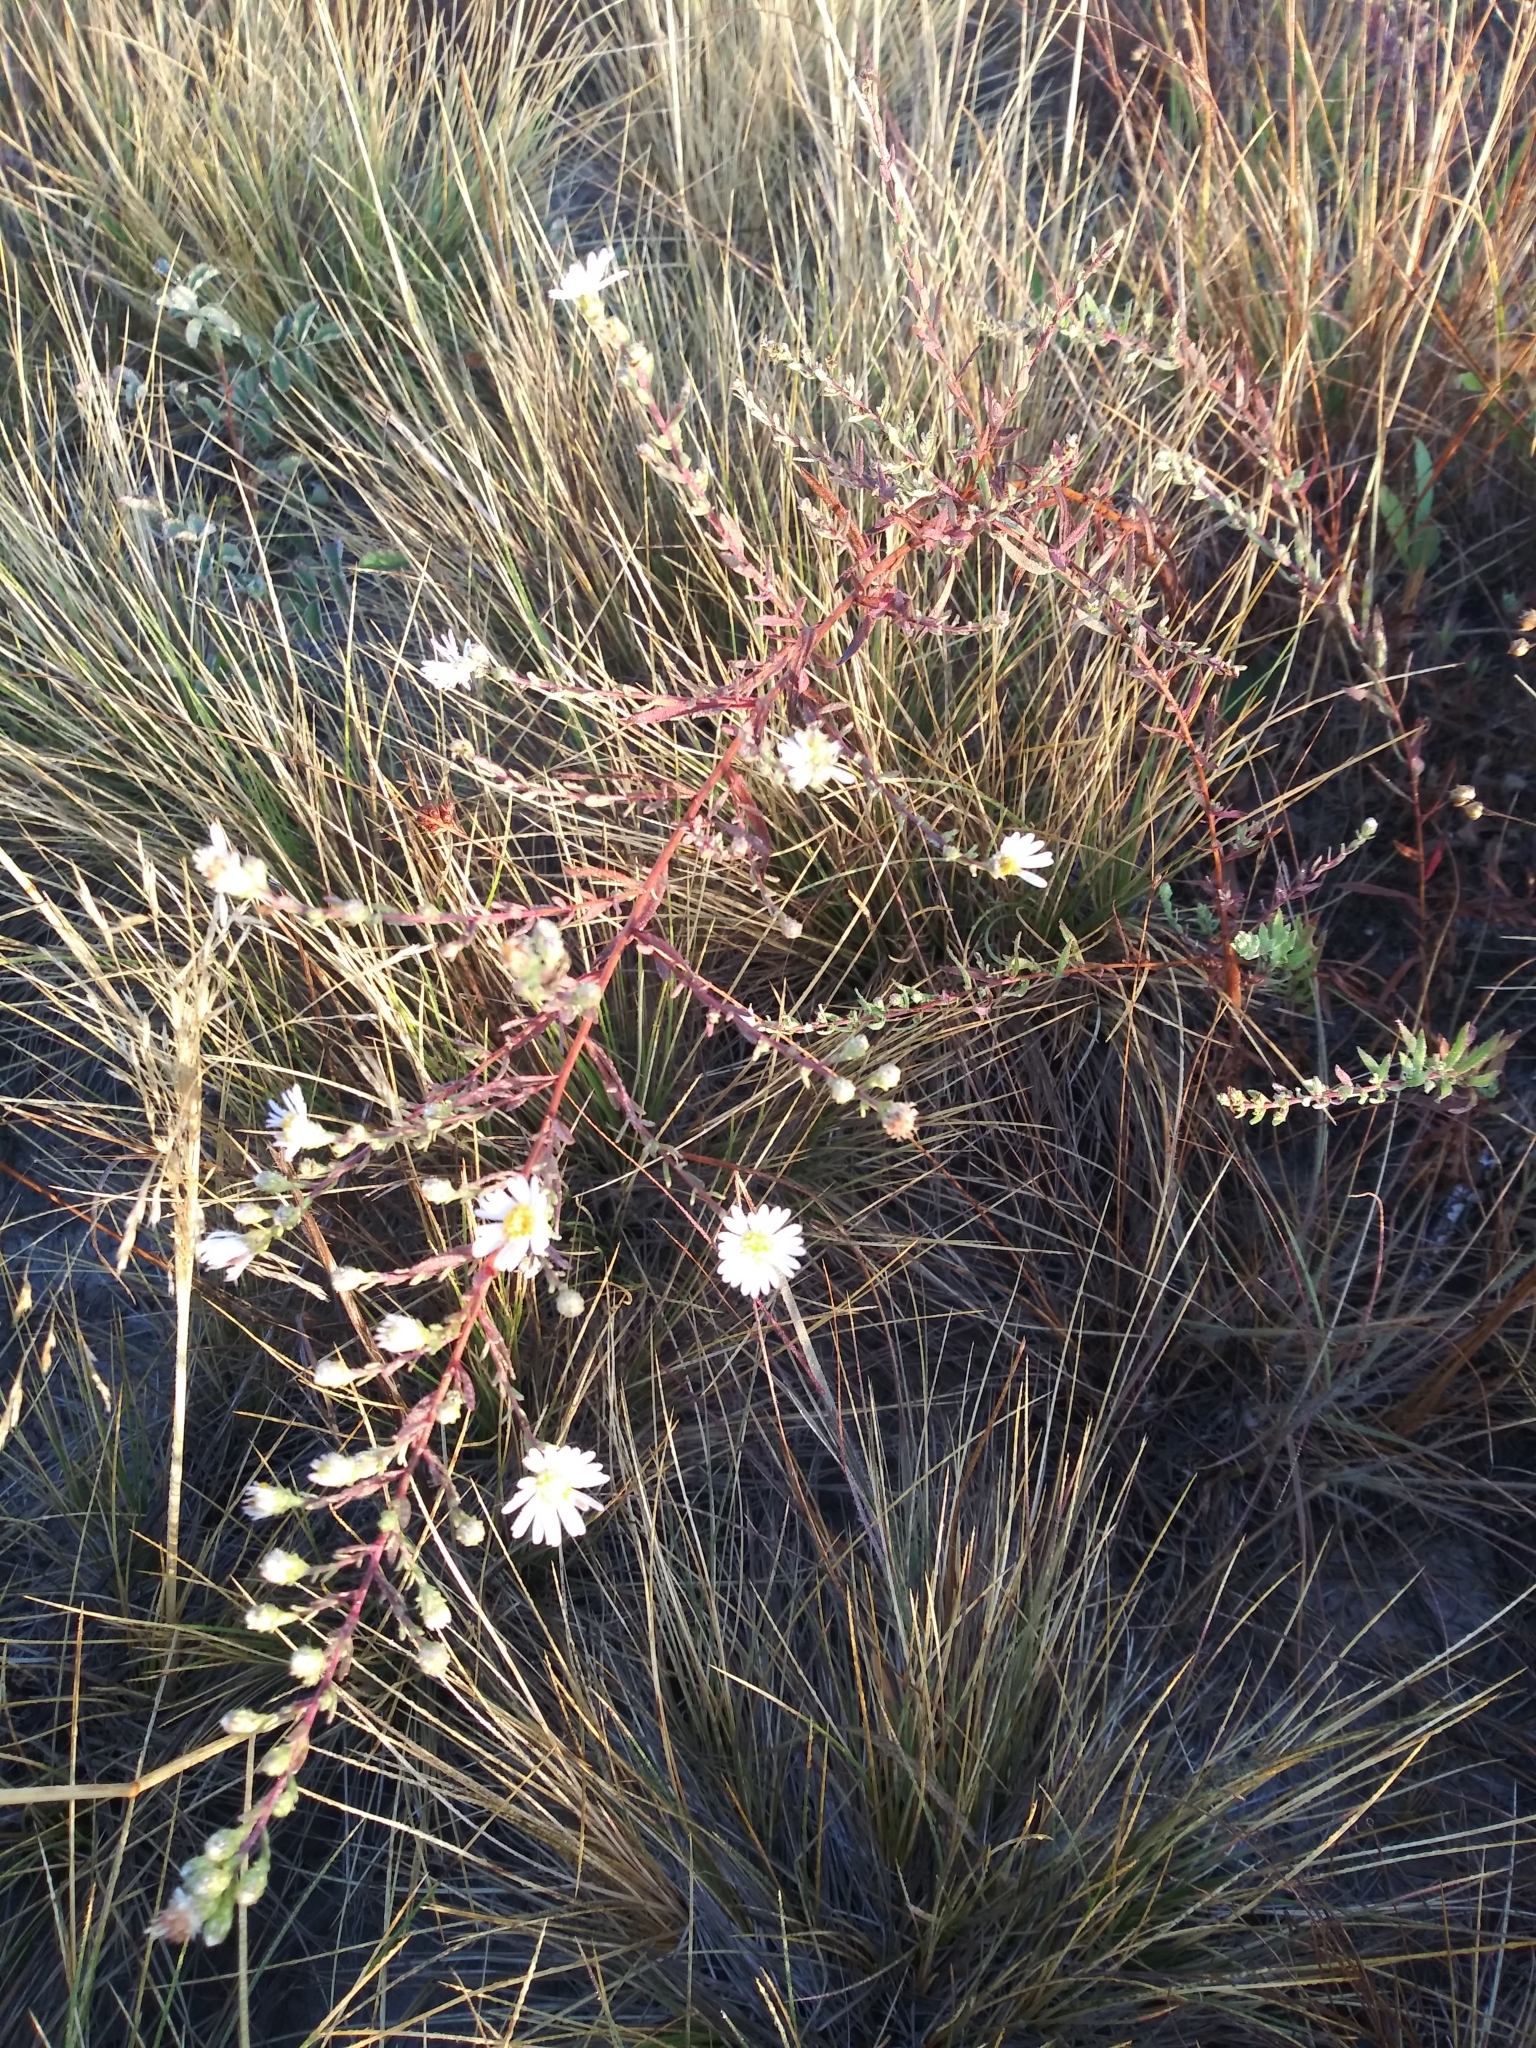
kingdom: Plantae
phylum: Tracheophyta
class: Magnoliopsida
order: Asterales
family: Asteraceae
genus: Symphyotrichum
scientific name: Symphyotrichum hallii
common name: Hall's aster
